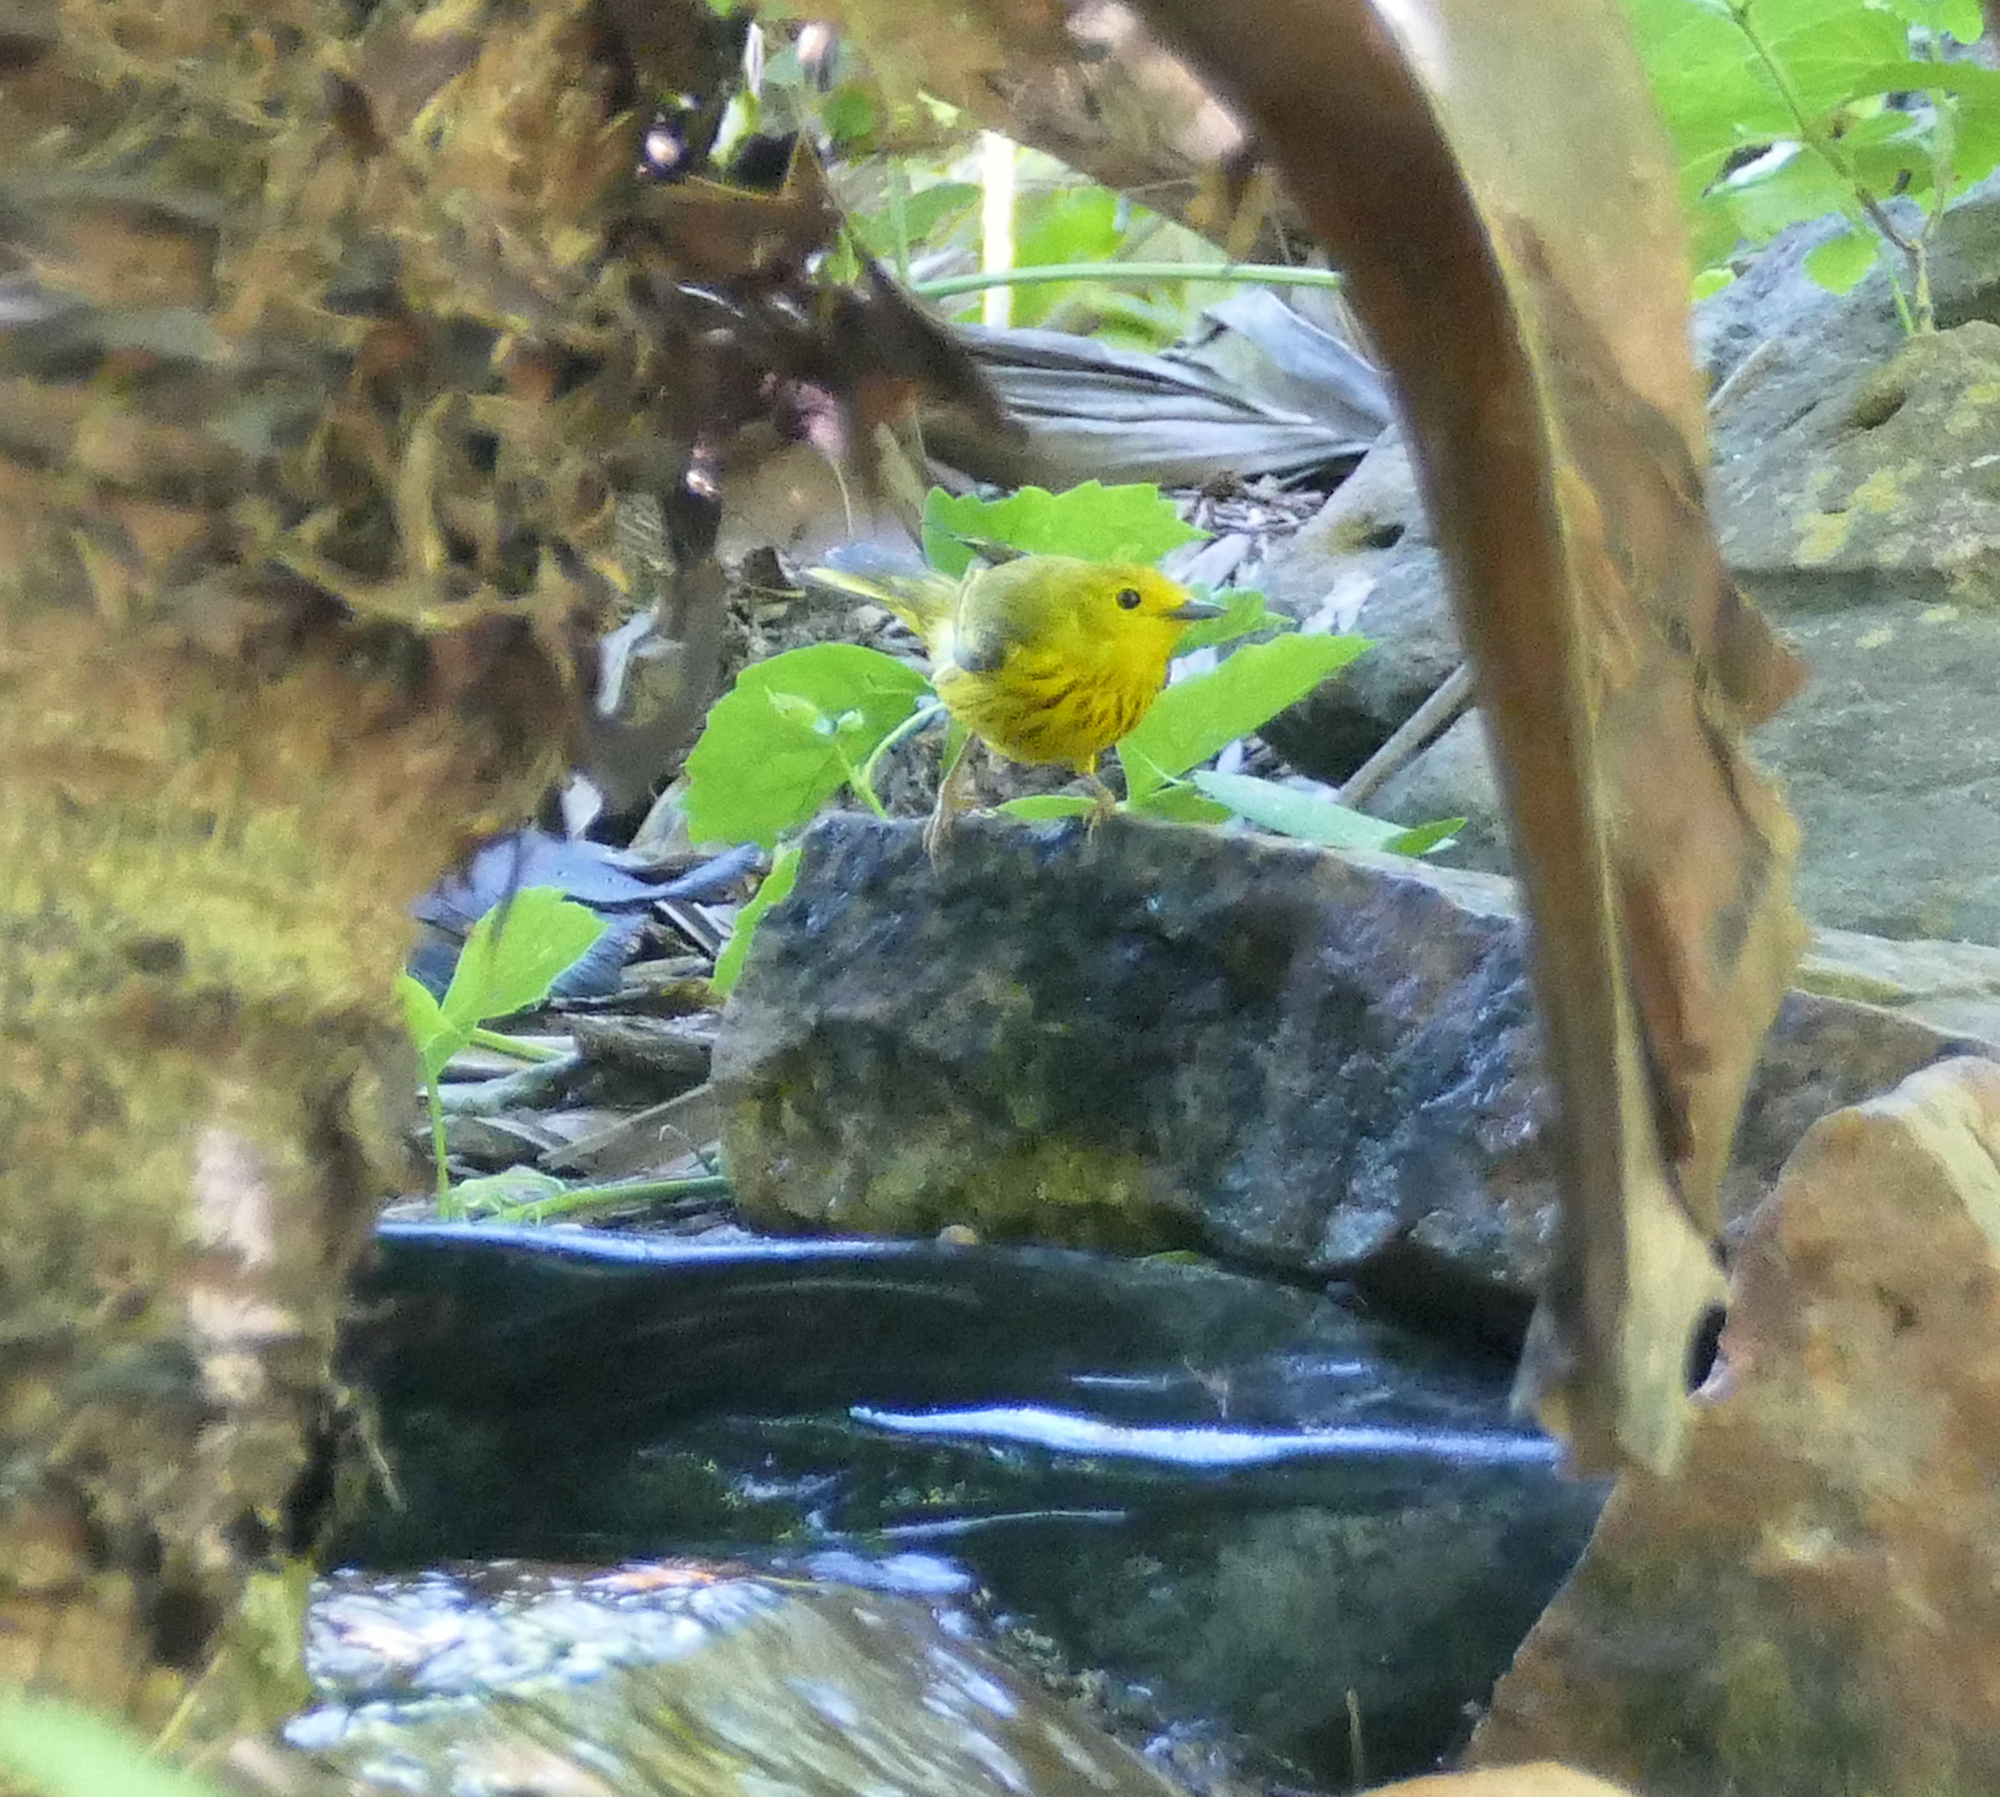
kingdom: Animalia
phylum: Chordata
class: Aves
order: Passeriformes
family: Parulidae
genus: Setophaga
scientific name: Setophaga petechia
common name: Yellow warbler
